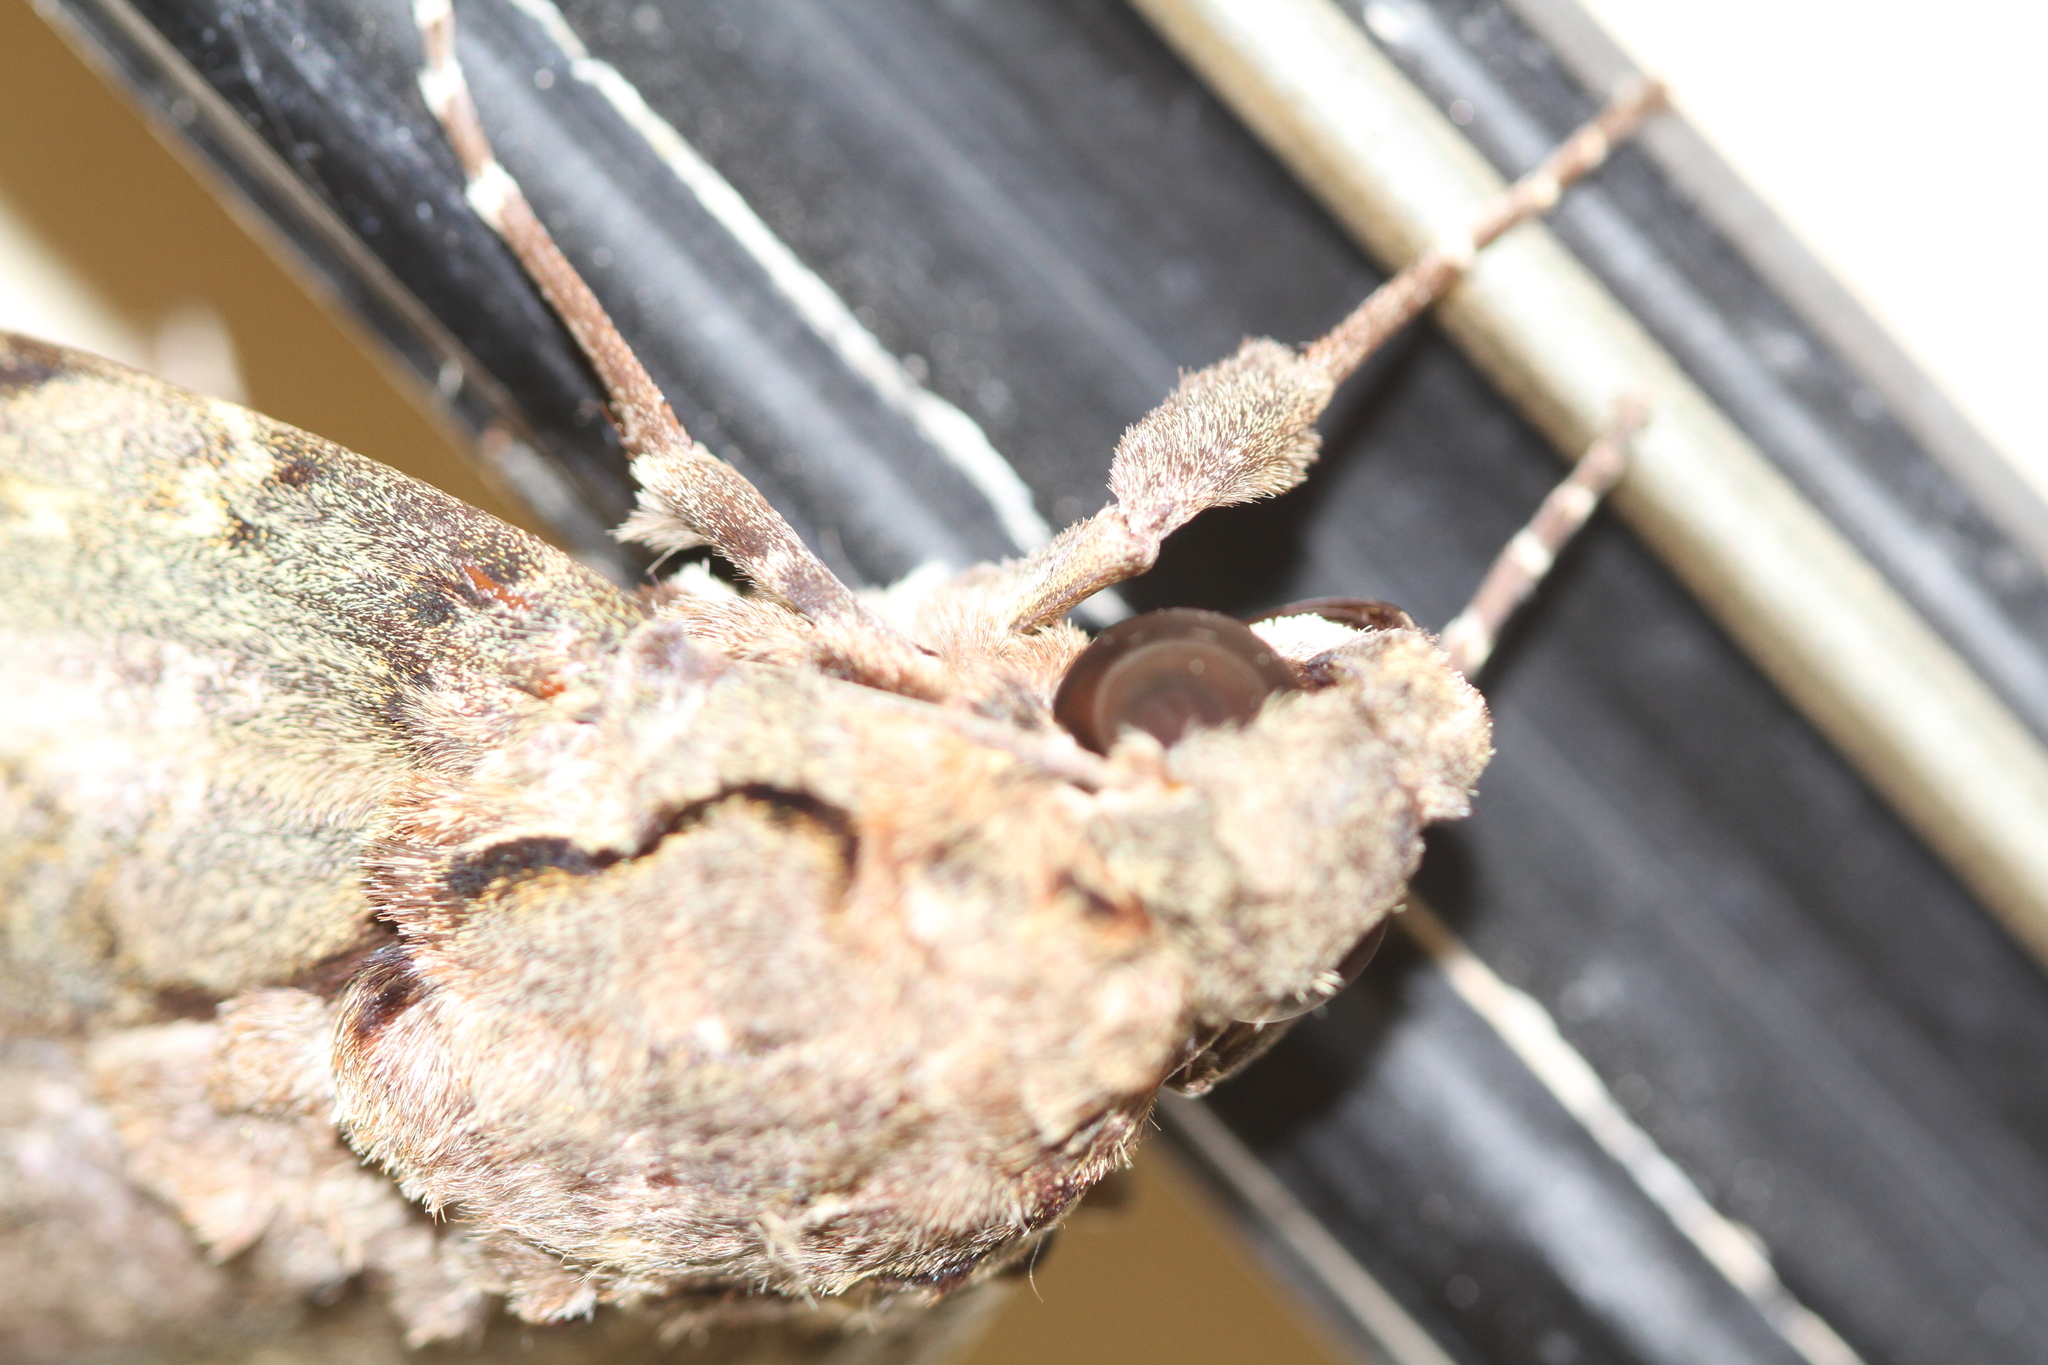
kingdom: Animalia
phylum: Arthropoda
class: Insecta
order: Lepidoptera
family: Sphingidae
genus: Cocytius
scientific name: Cocytius antaeus
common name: Giant sphinx
